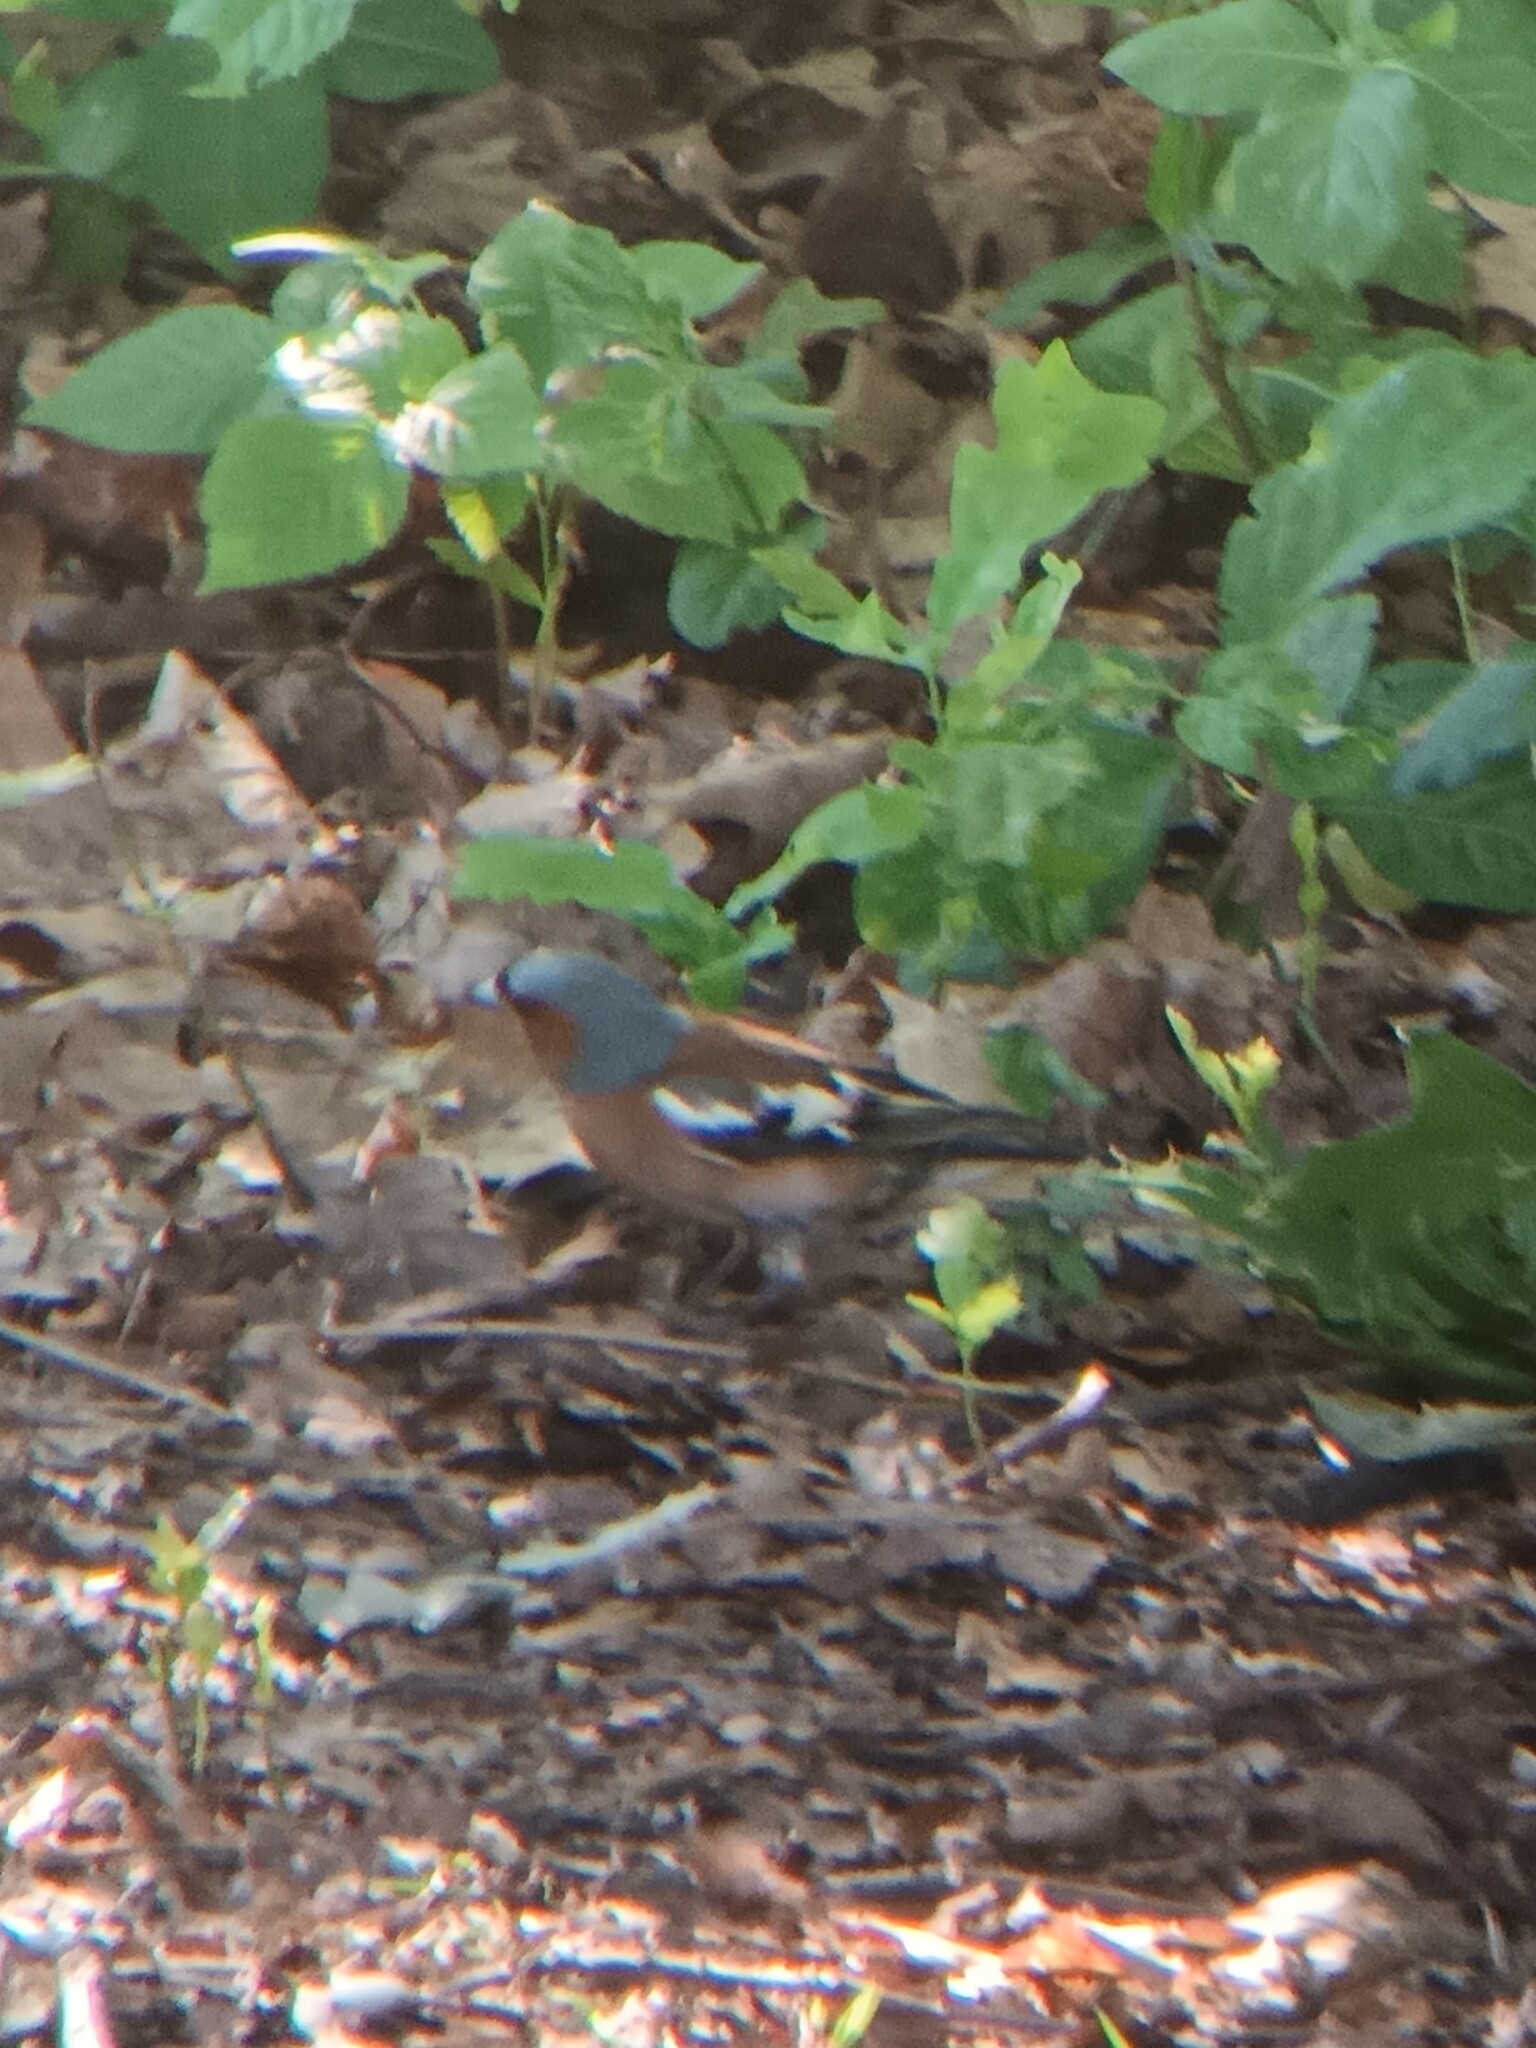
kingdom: Animalia
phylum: Chordata
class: Aves
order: Passeriformes
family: Fringillidae
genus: Fringilla
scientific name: Fringilla coelebs
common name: Common chaffinch
